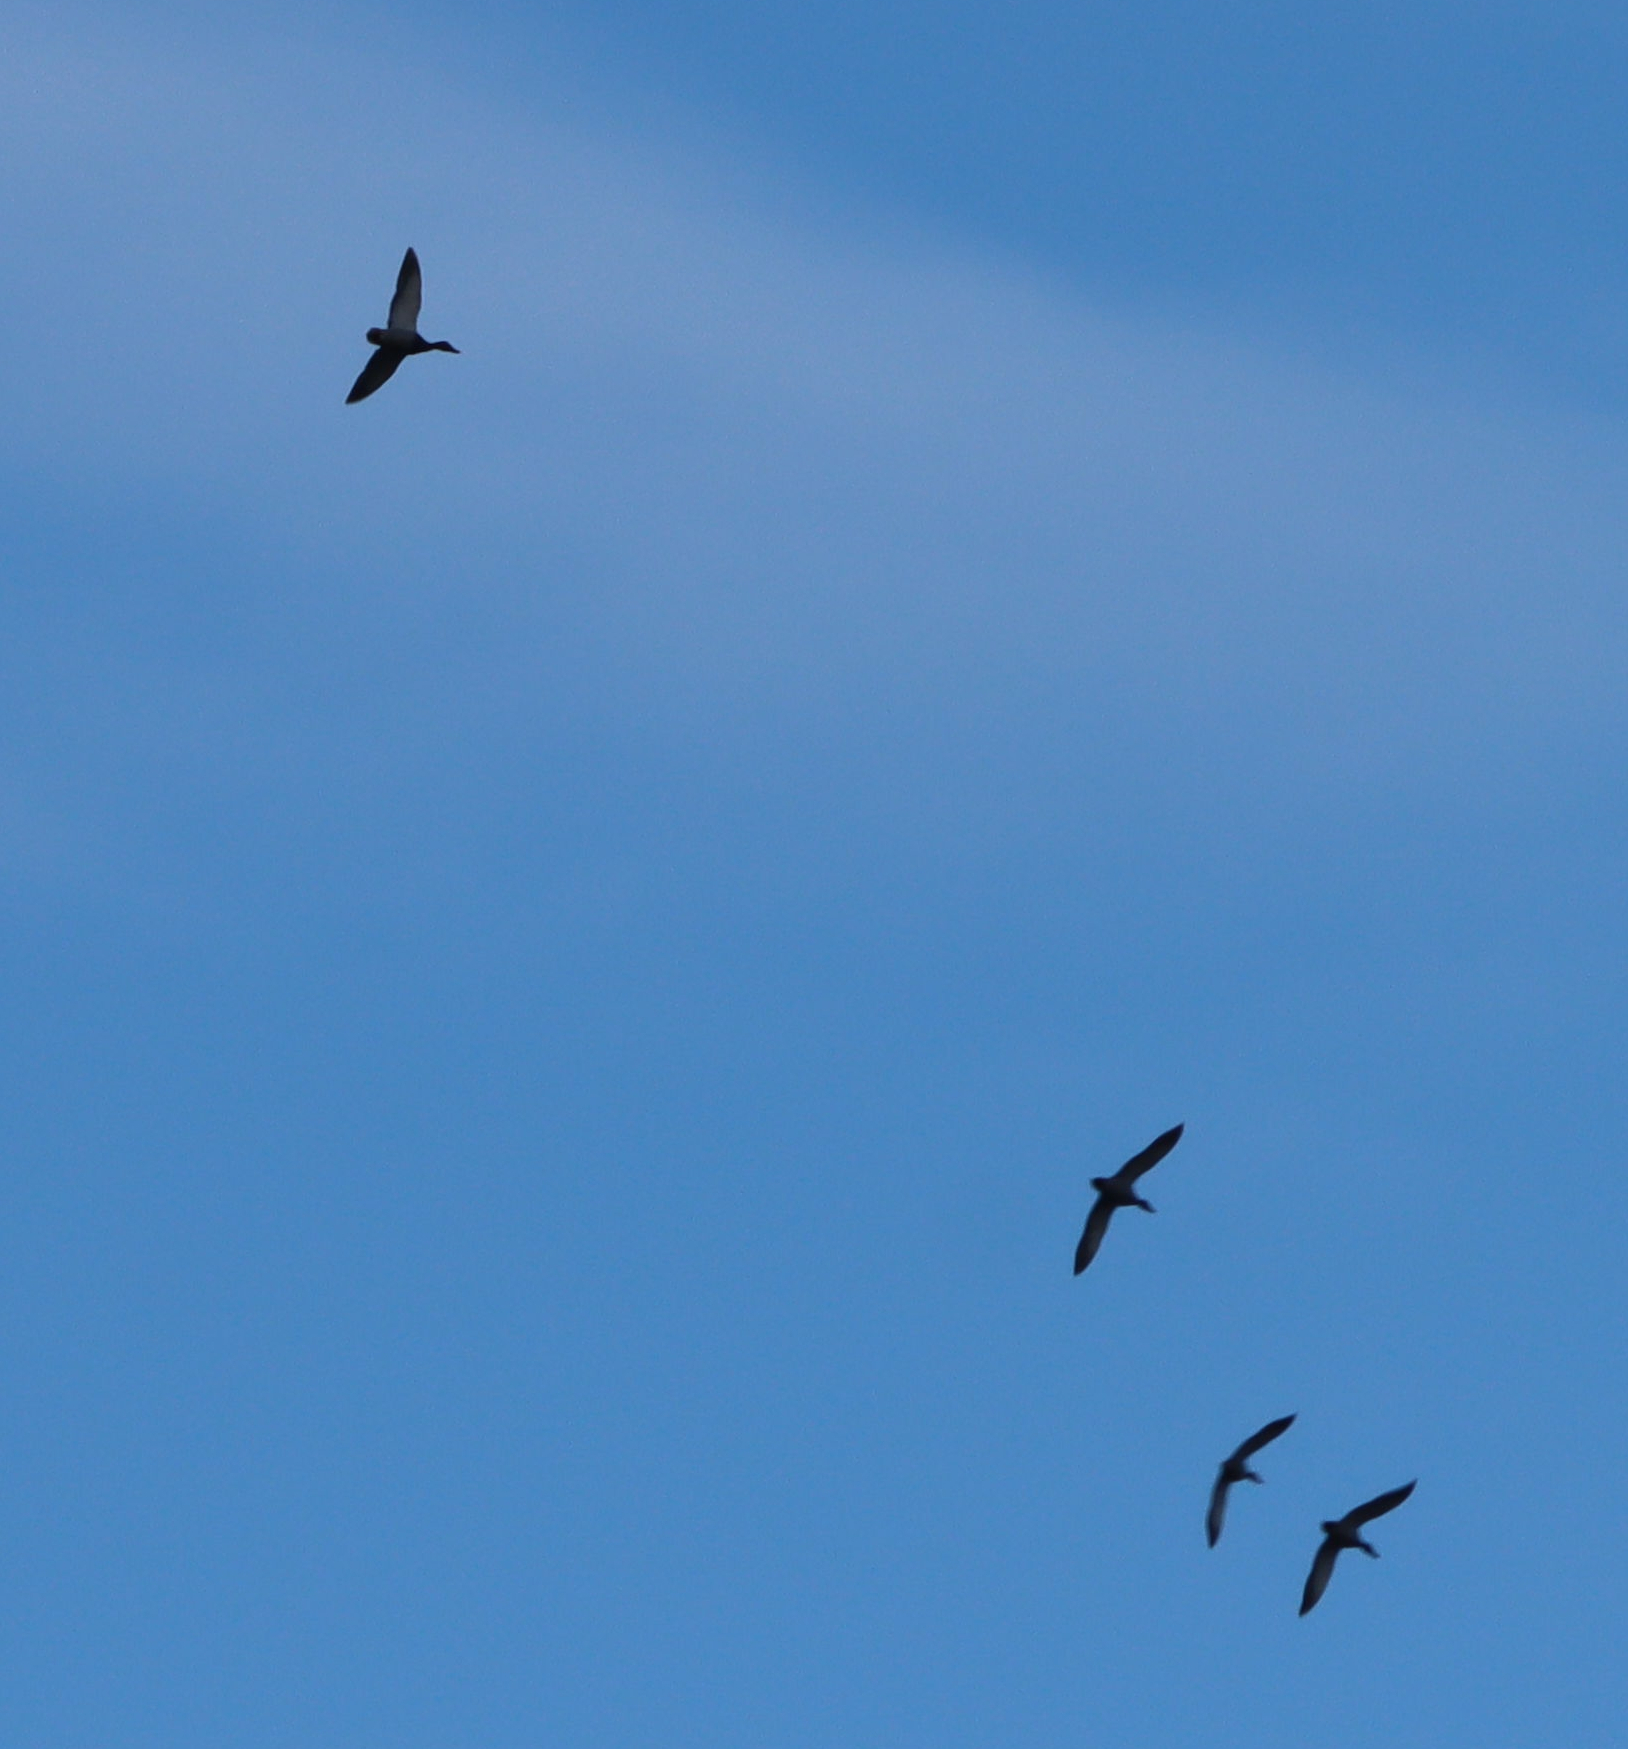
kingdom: Animalia
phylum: Chordata
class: Aves
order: Anseriformes
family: Anatidae
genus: Anas
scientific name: Anas platyrhynchos
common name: Mallard
